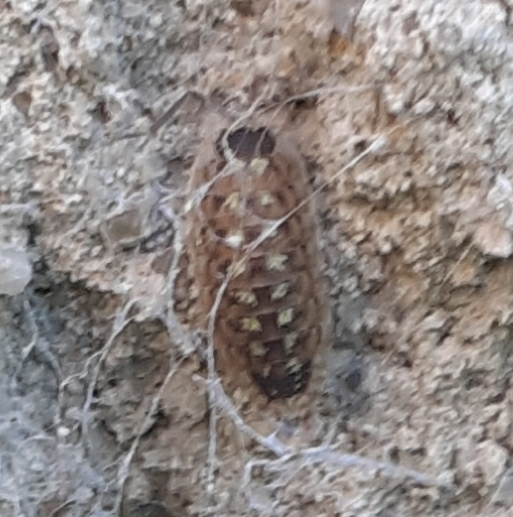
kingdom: Animalia
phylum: Arthropoda
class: Malacostraca
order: Isopoda
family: Porcellionidae
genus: Porcellio
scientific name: Porcellio spinicornis
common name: Painted woodlouse
